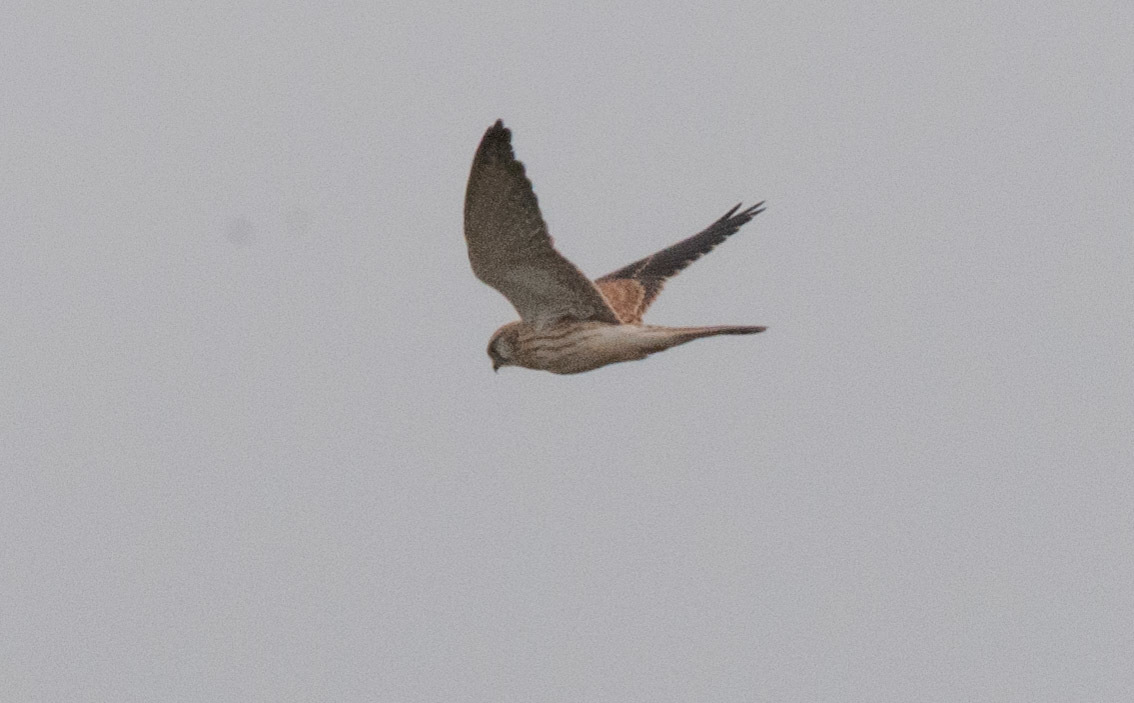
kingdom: Animalia
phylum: Chordata
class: Aves
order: Falconiformes
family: Falconidae
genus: Falco
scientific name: Falco cenchroides
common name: Nankeen kestrel
